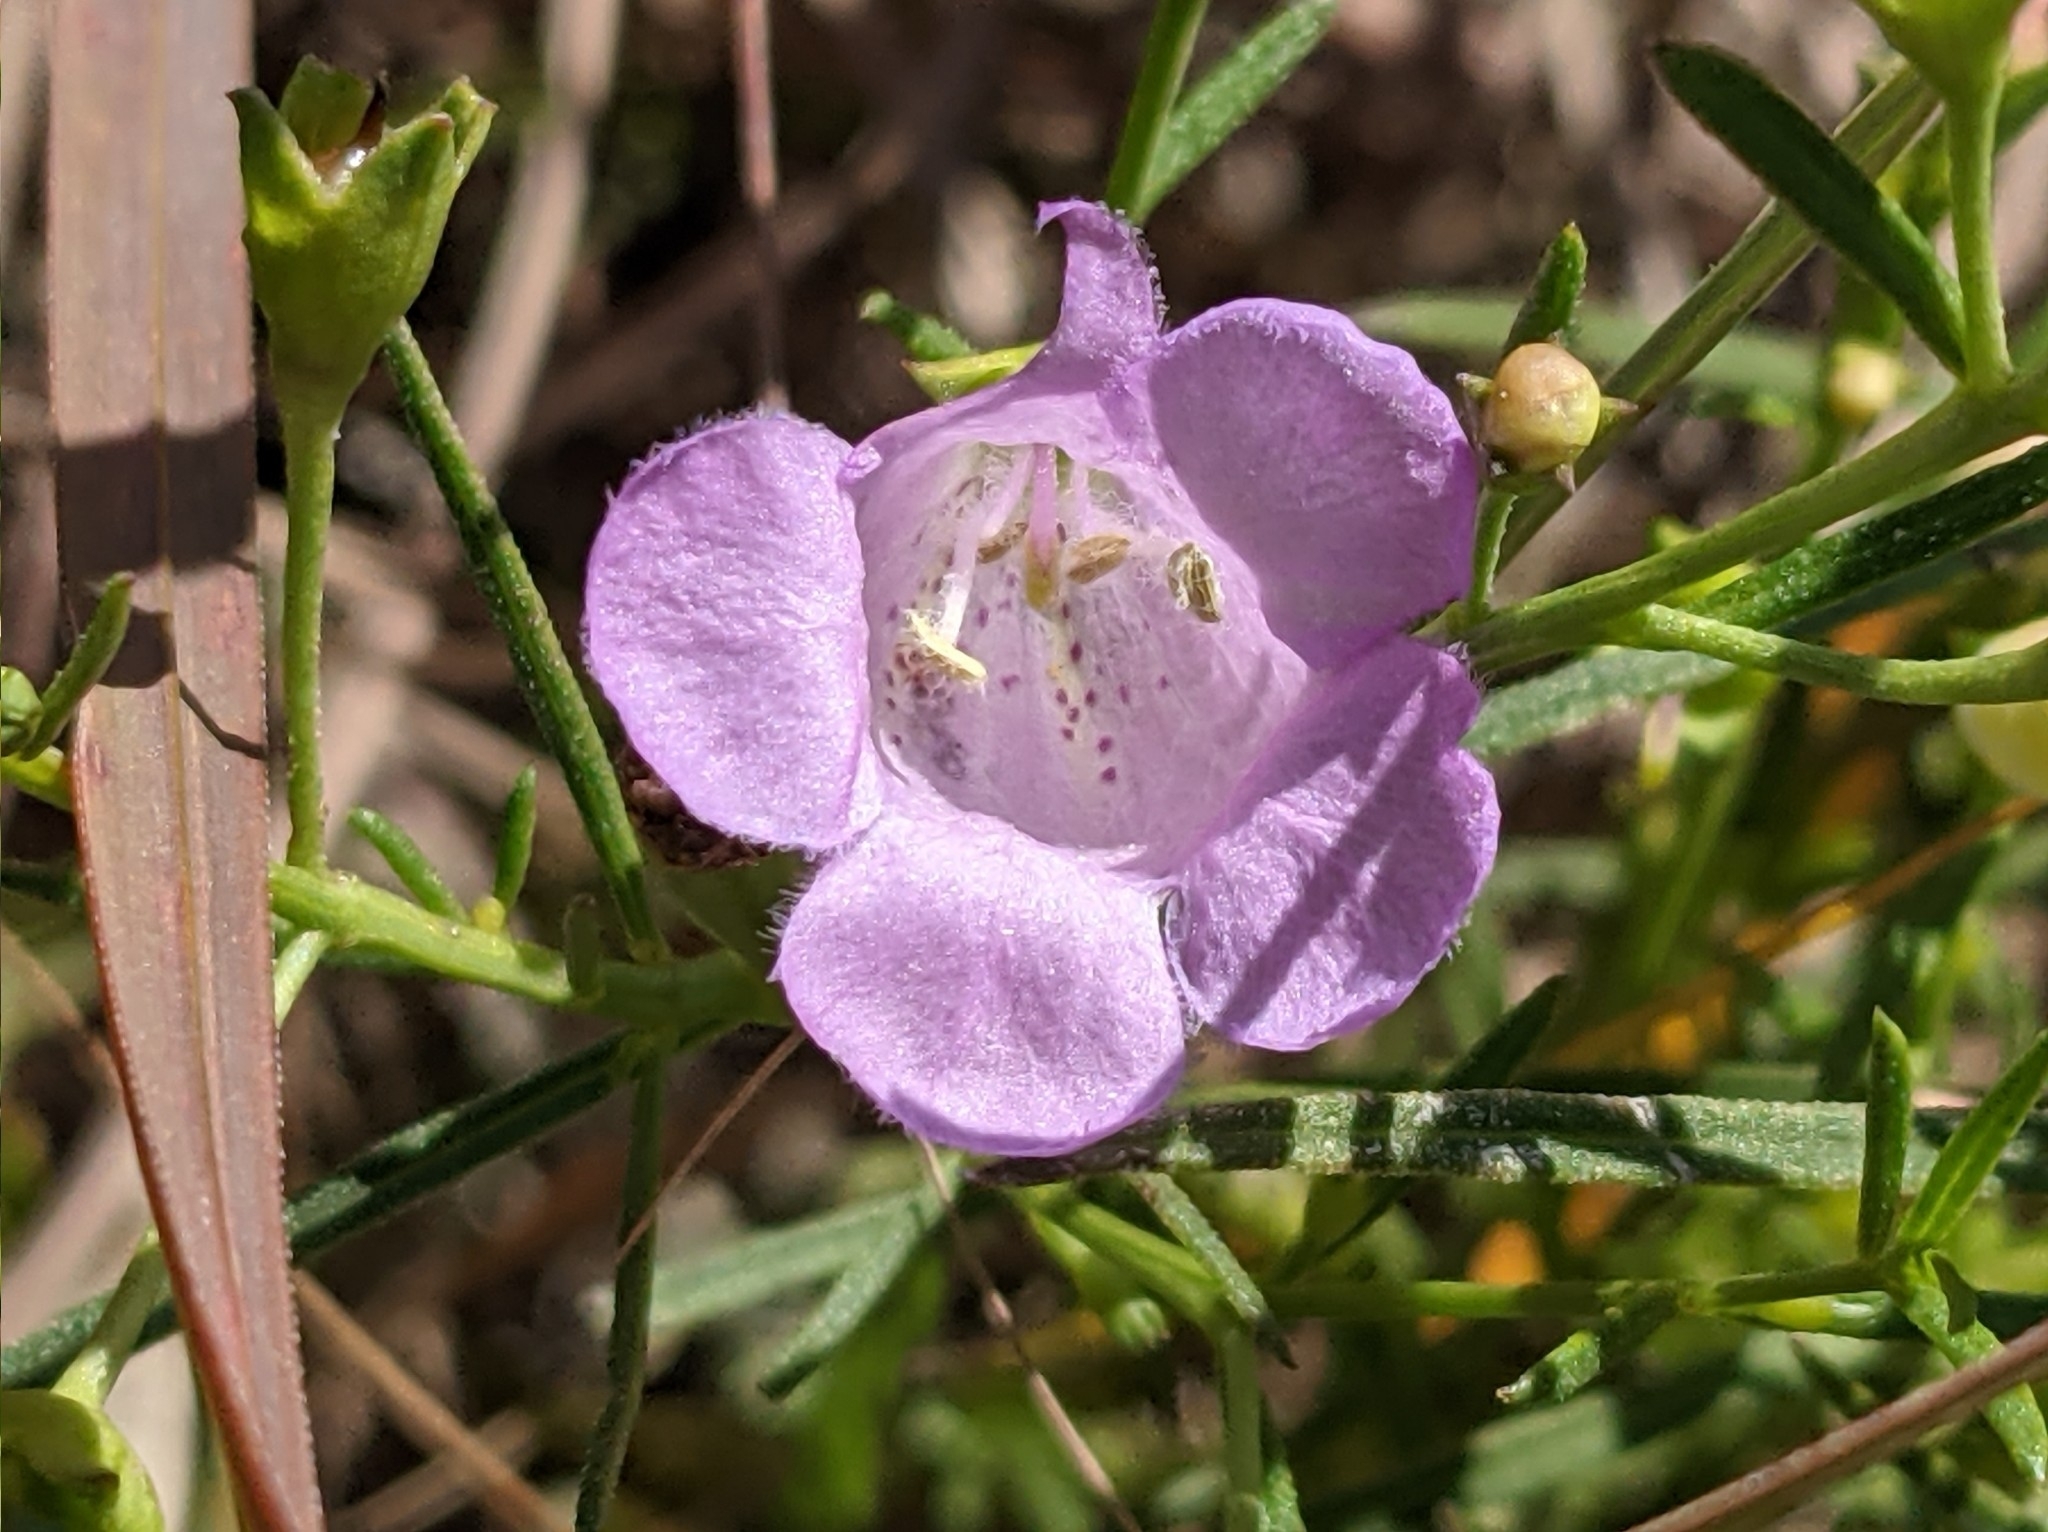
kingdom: Plantae
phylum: Tracheophyta
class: Magnoliopsida
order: Lamiales
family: Orobanchaceae
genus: Agalinis
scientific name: Agalinis aspera
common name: Rough agalinis
